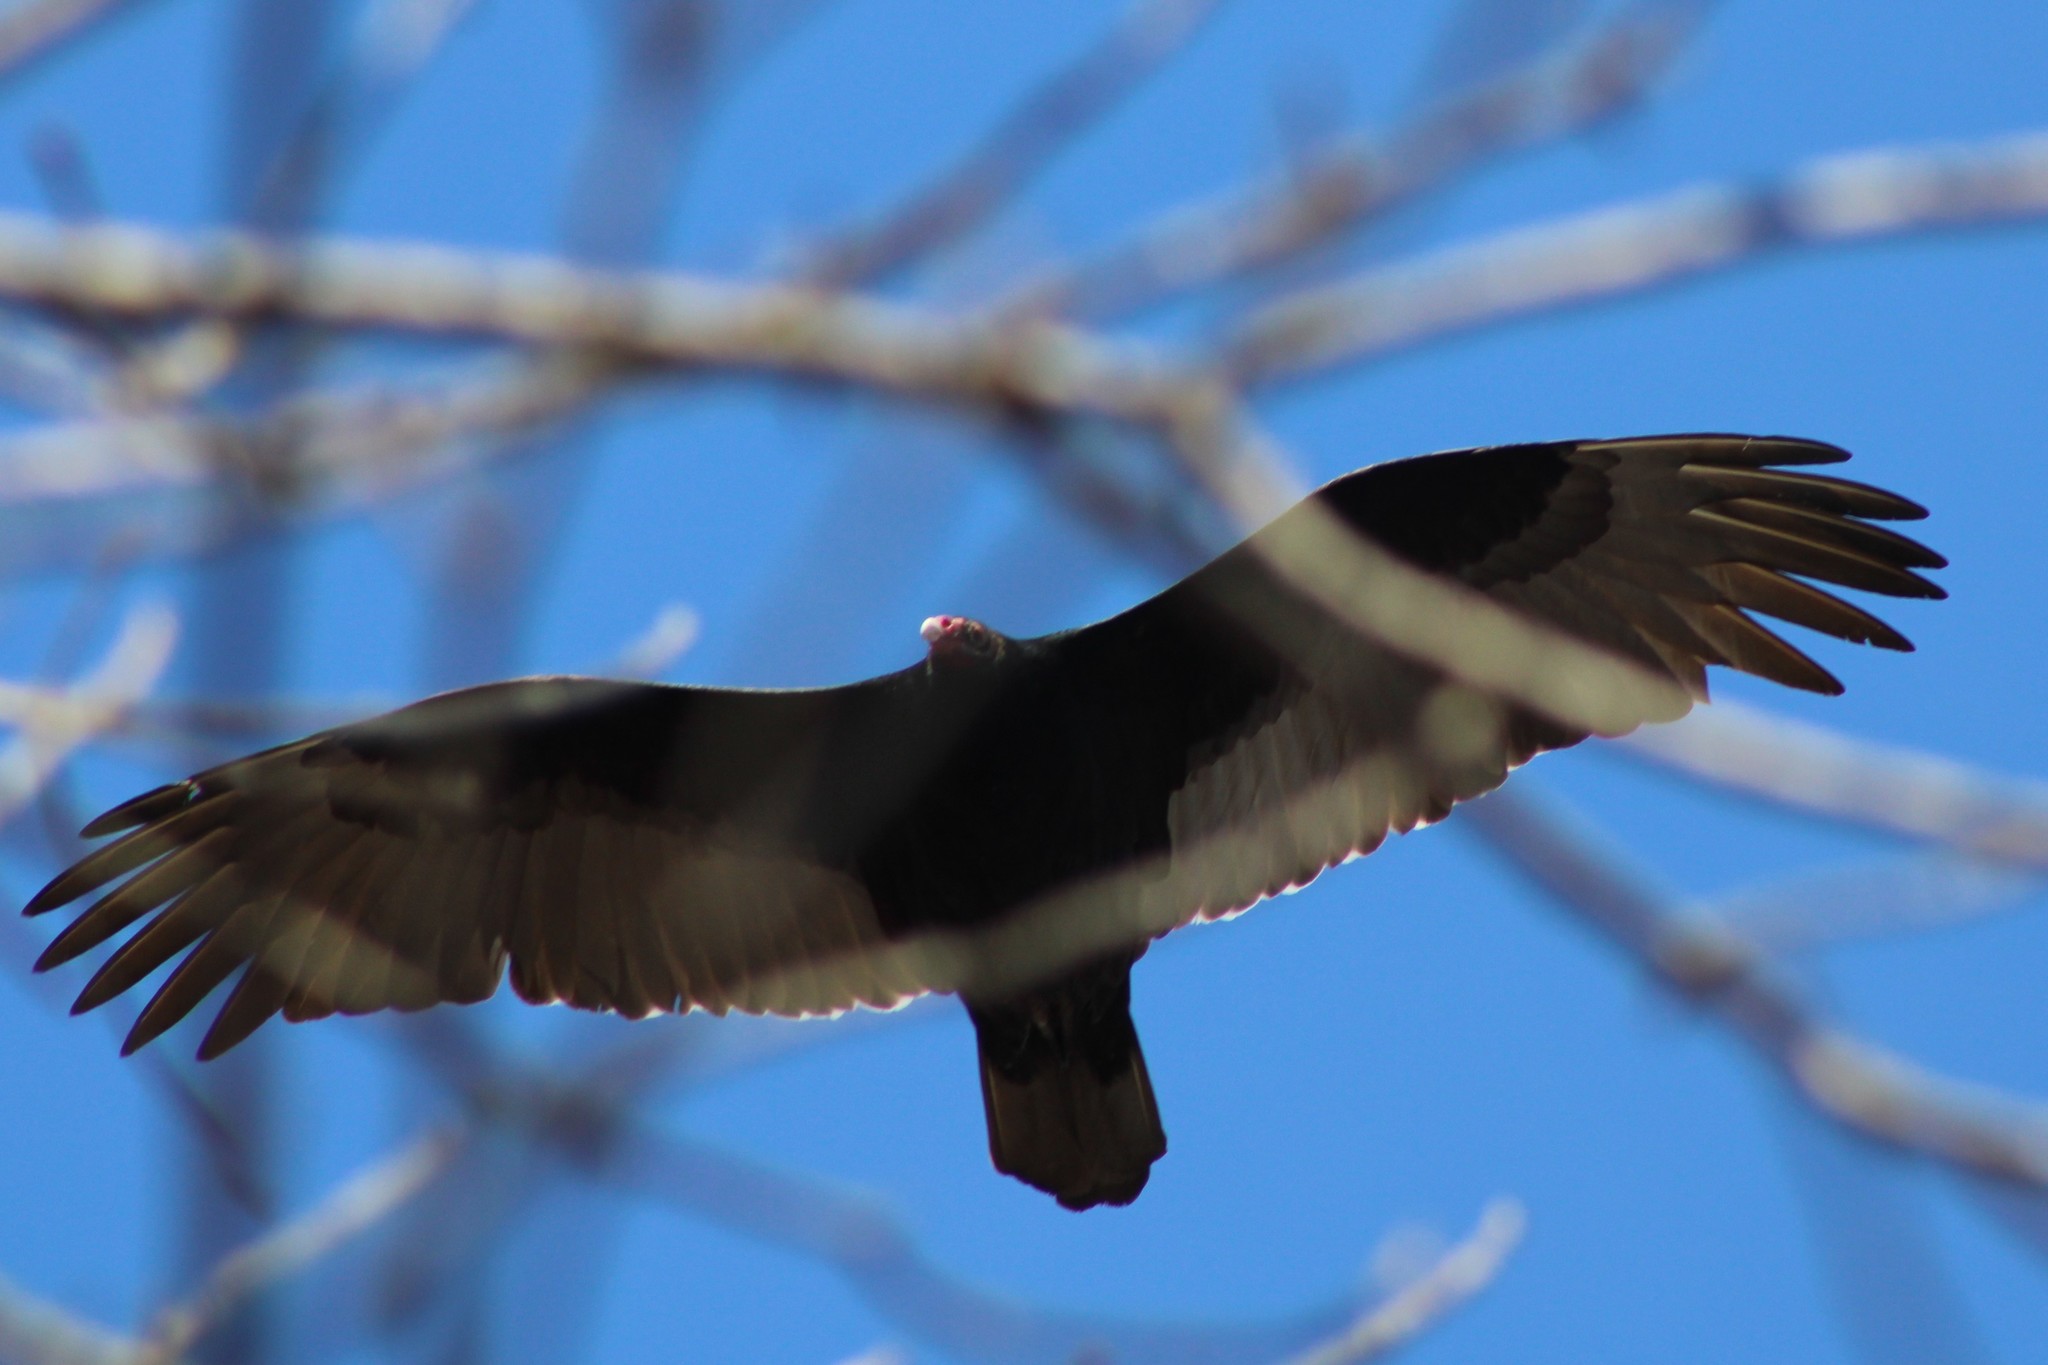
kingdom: Animalia
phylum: Chordata
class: Aves
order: Accipitriformes
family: Cathartidae
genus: Cathartes
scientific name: Cathartes aura
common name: Turkey vulture
